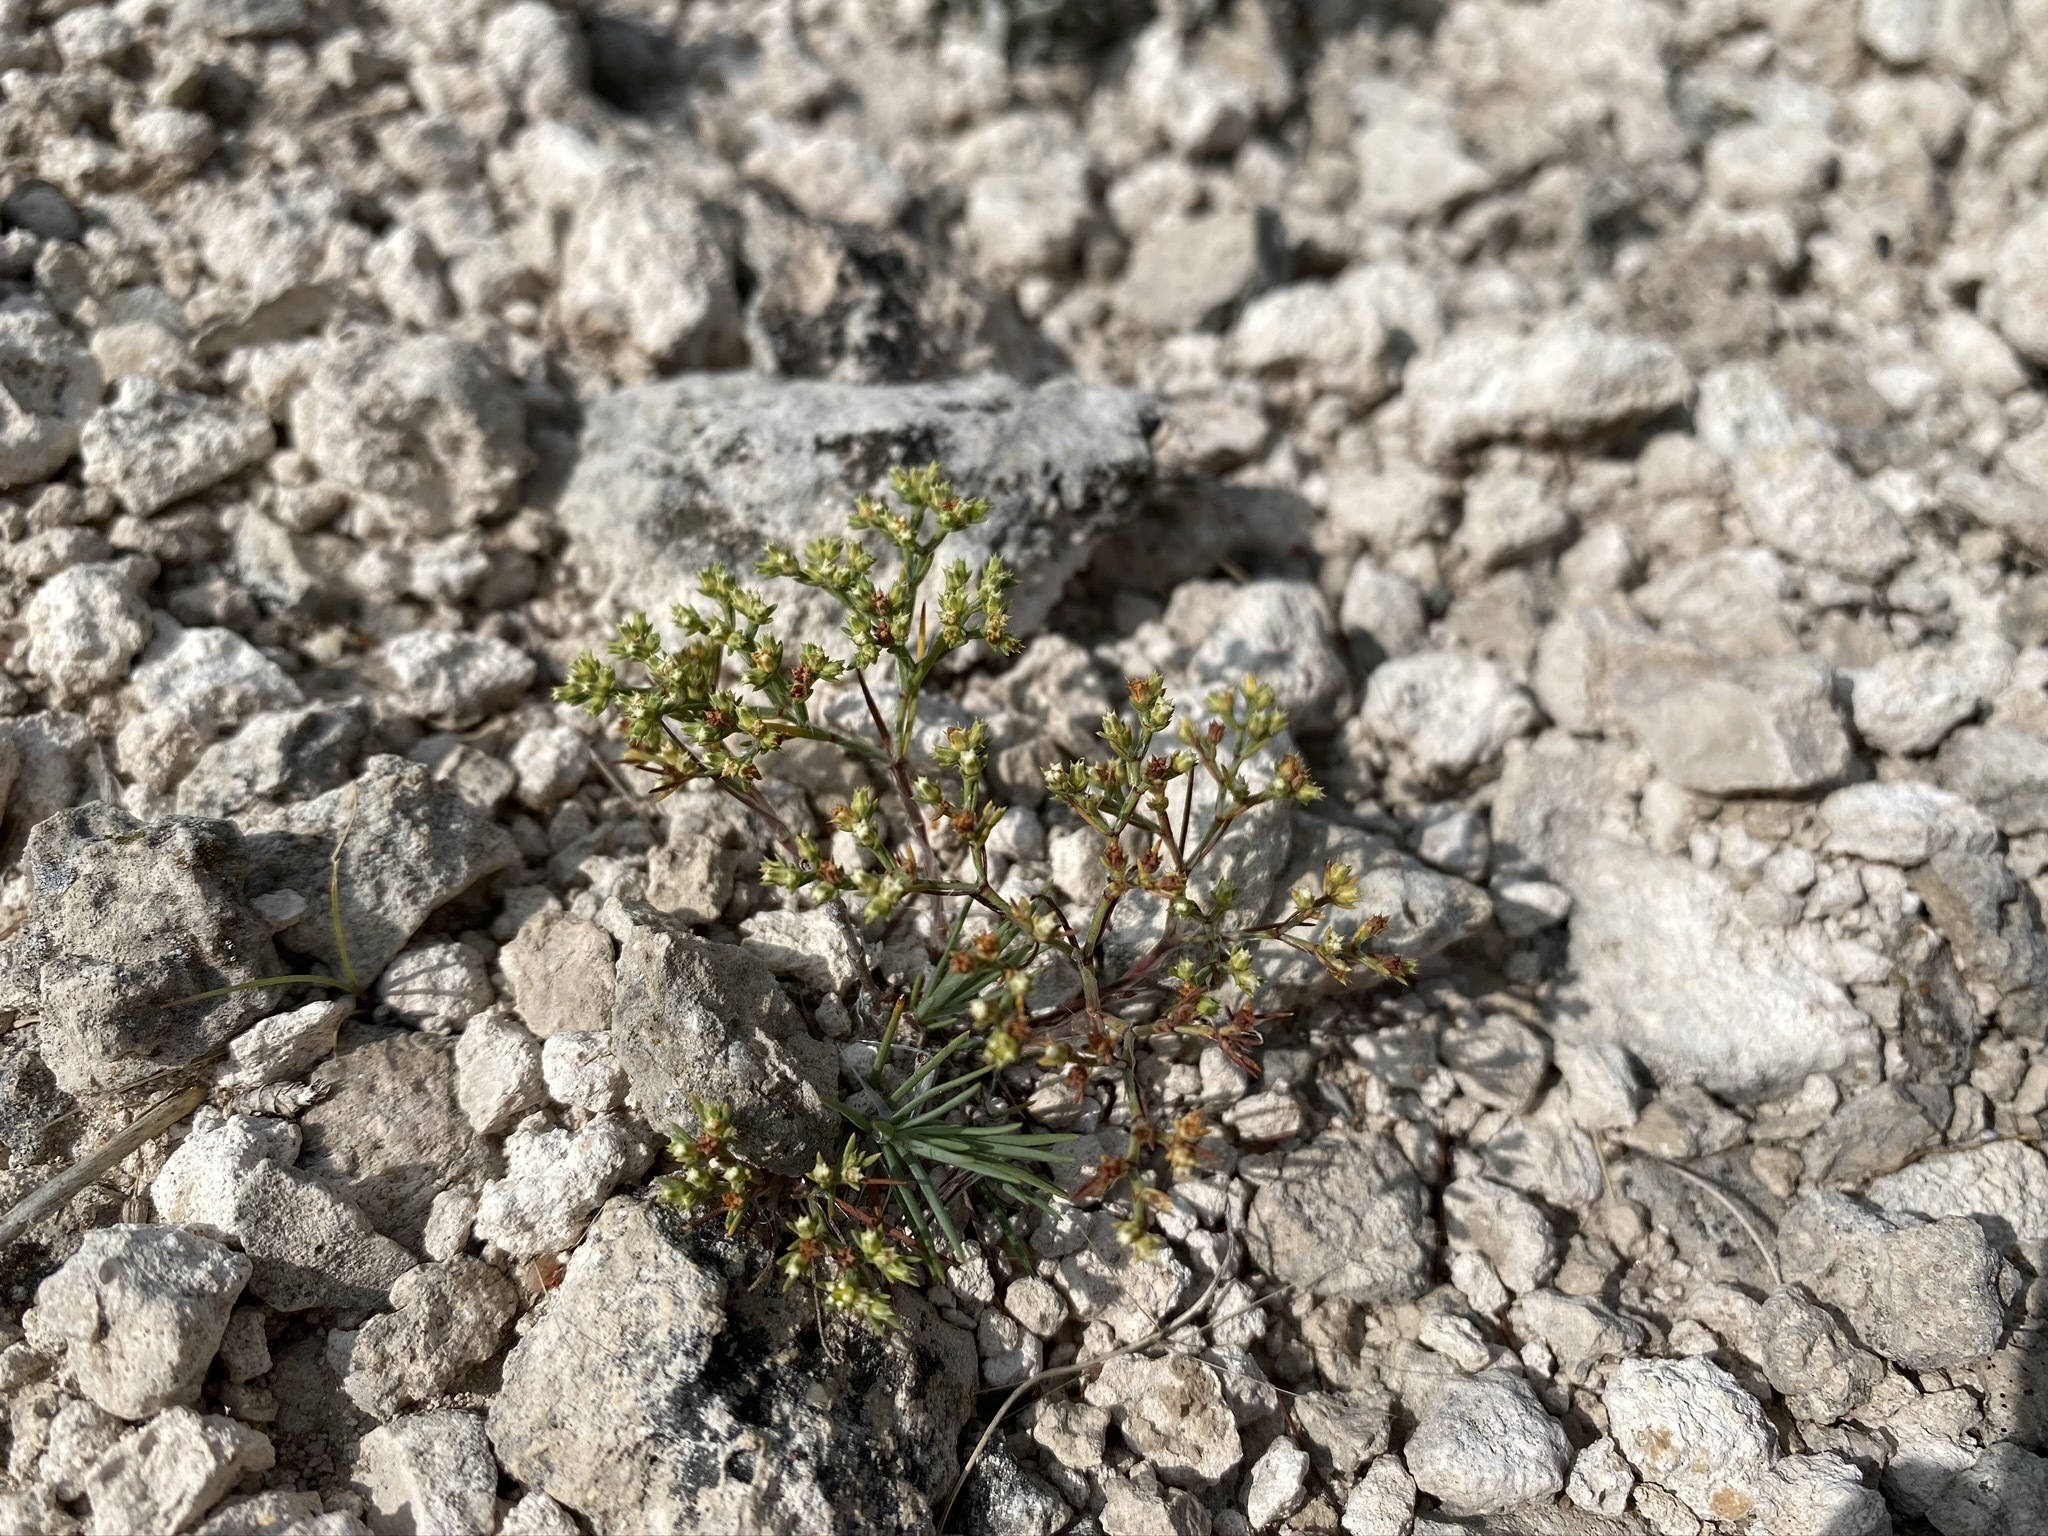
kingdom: Plantae
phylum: Tracheophyta
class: Magnoliopsida
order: Caryophyllales
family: Caryophyllaceae
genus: Paronychia
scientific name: Paronychia jamesii
